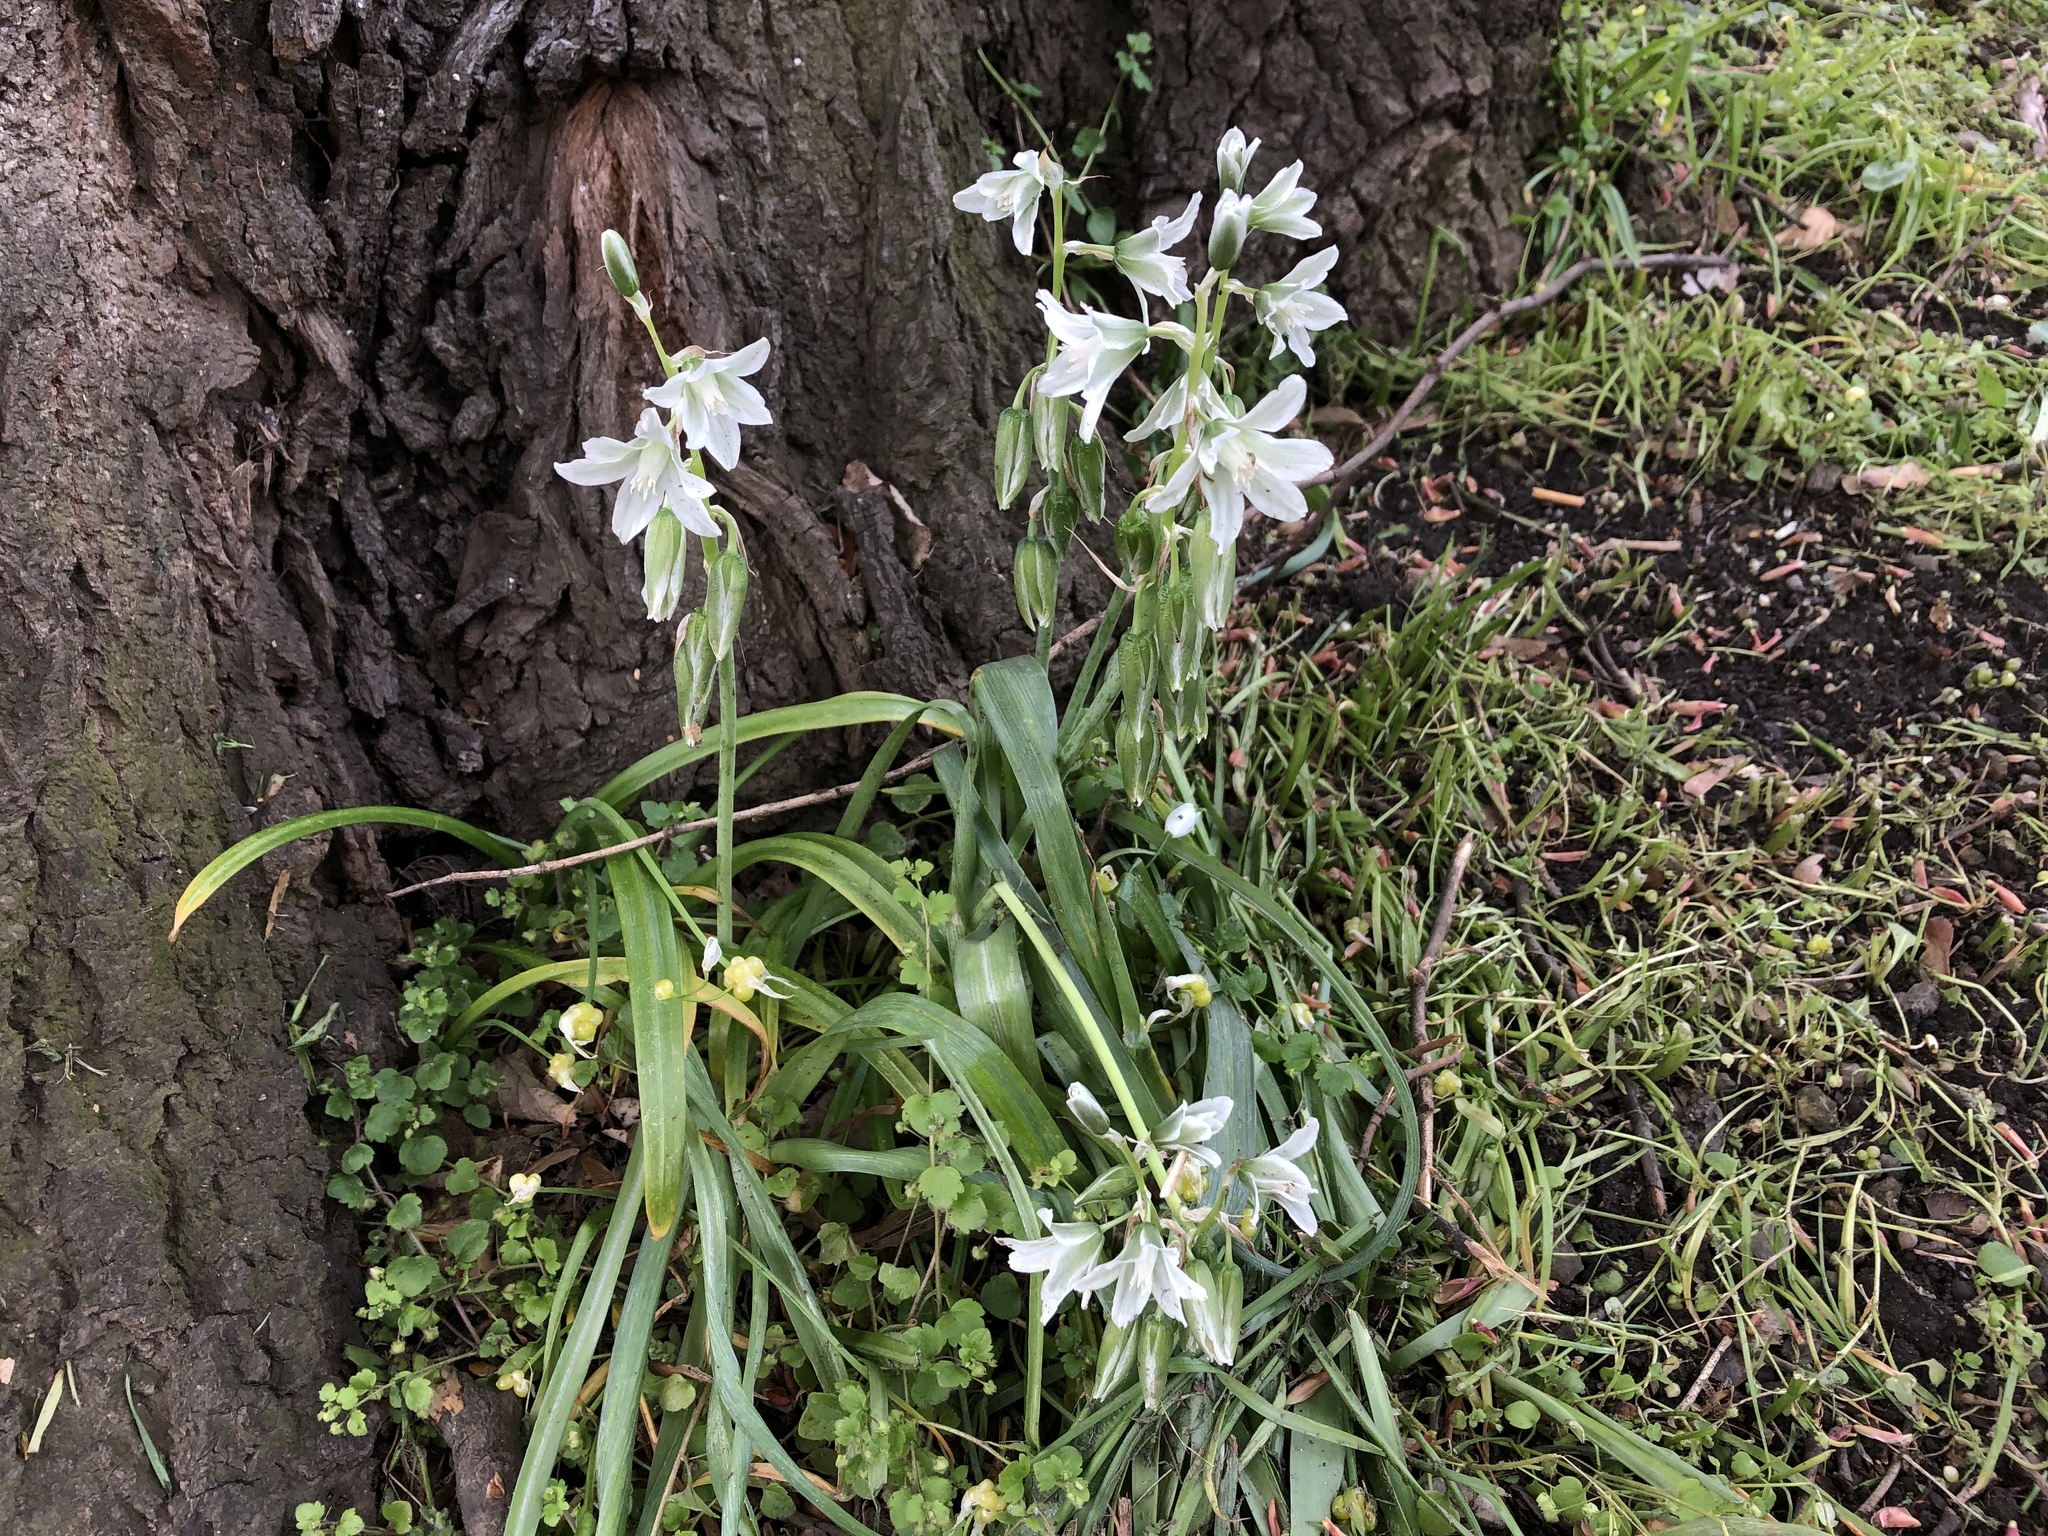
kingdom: Plantae
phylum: Tracheophyta
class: Liliopsida
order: Asparagales
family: Asparagaceae
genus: Ornithogalum
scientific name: Ornithogalum nutans
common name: Drooping star-of-bethlehem
